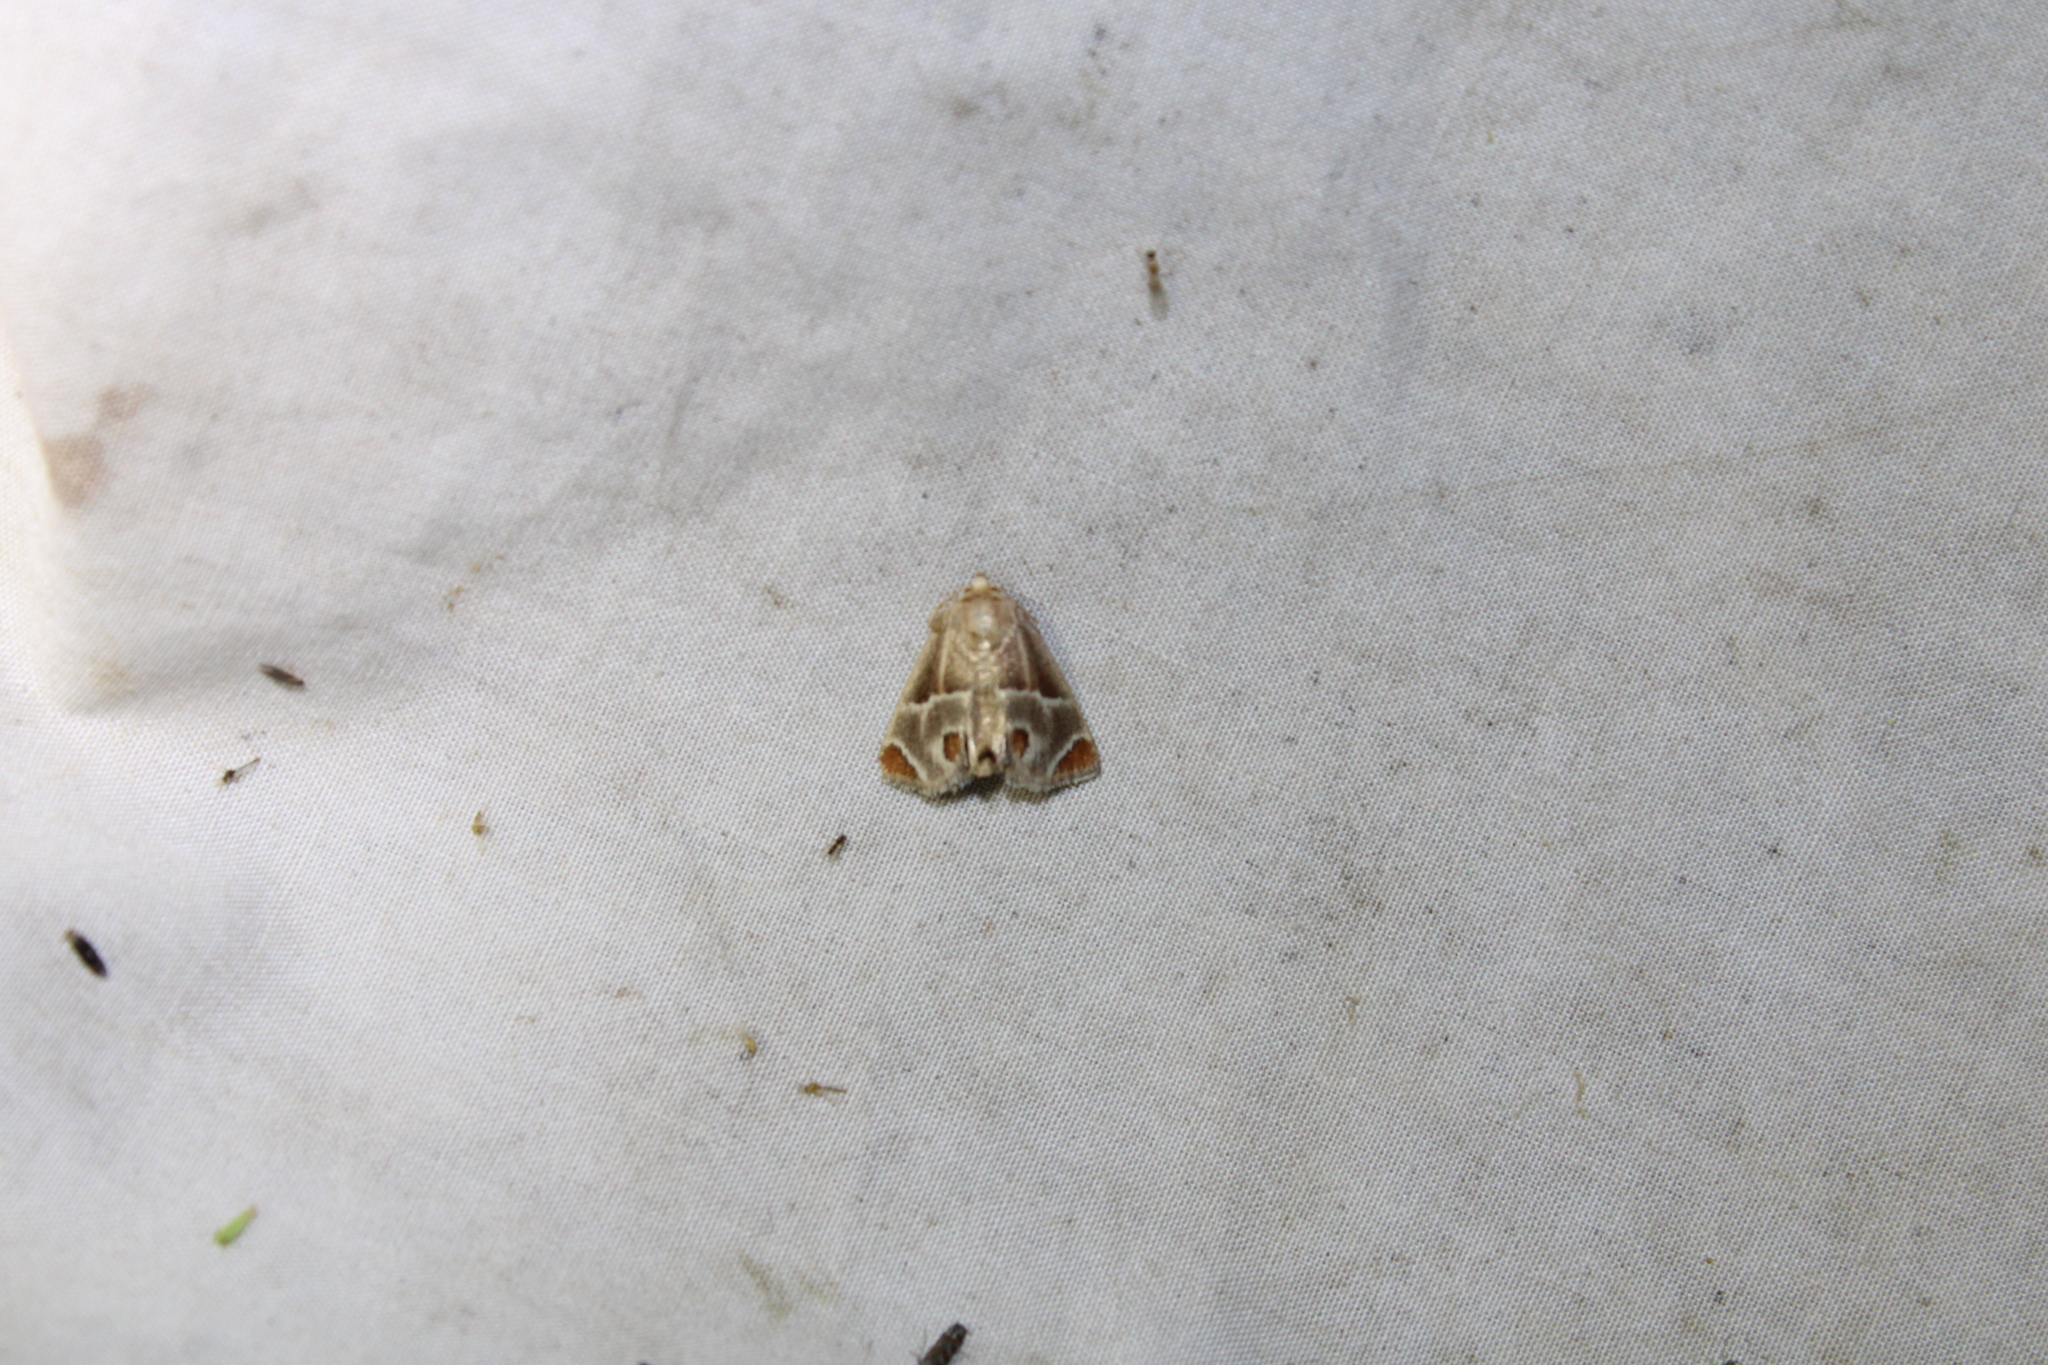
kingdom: Animalia
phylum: Arthropoda
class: Insecta
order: Lepidoptera
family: Limacodidae
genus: Apoda
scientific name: Apoda biguttata
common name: Shagreened slug moth
